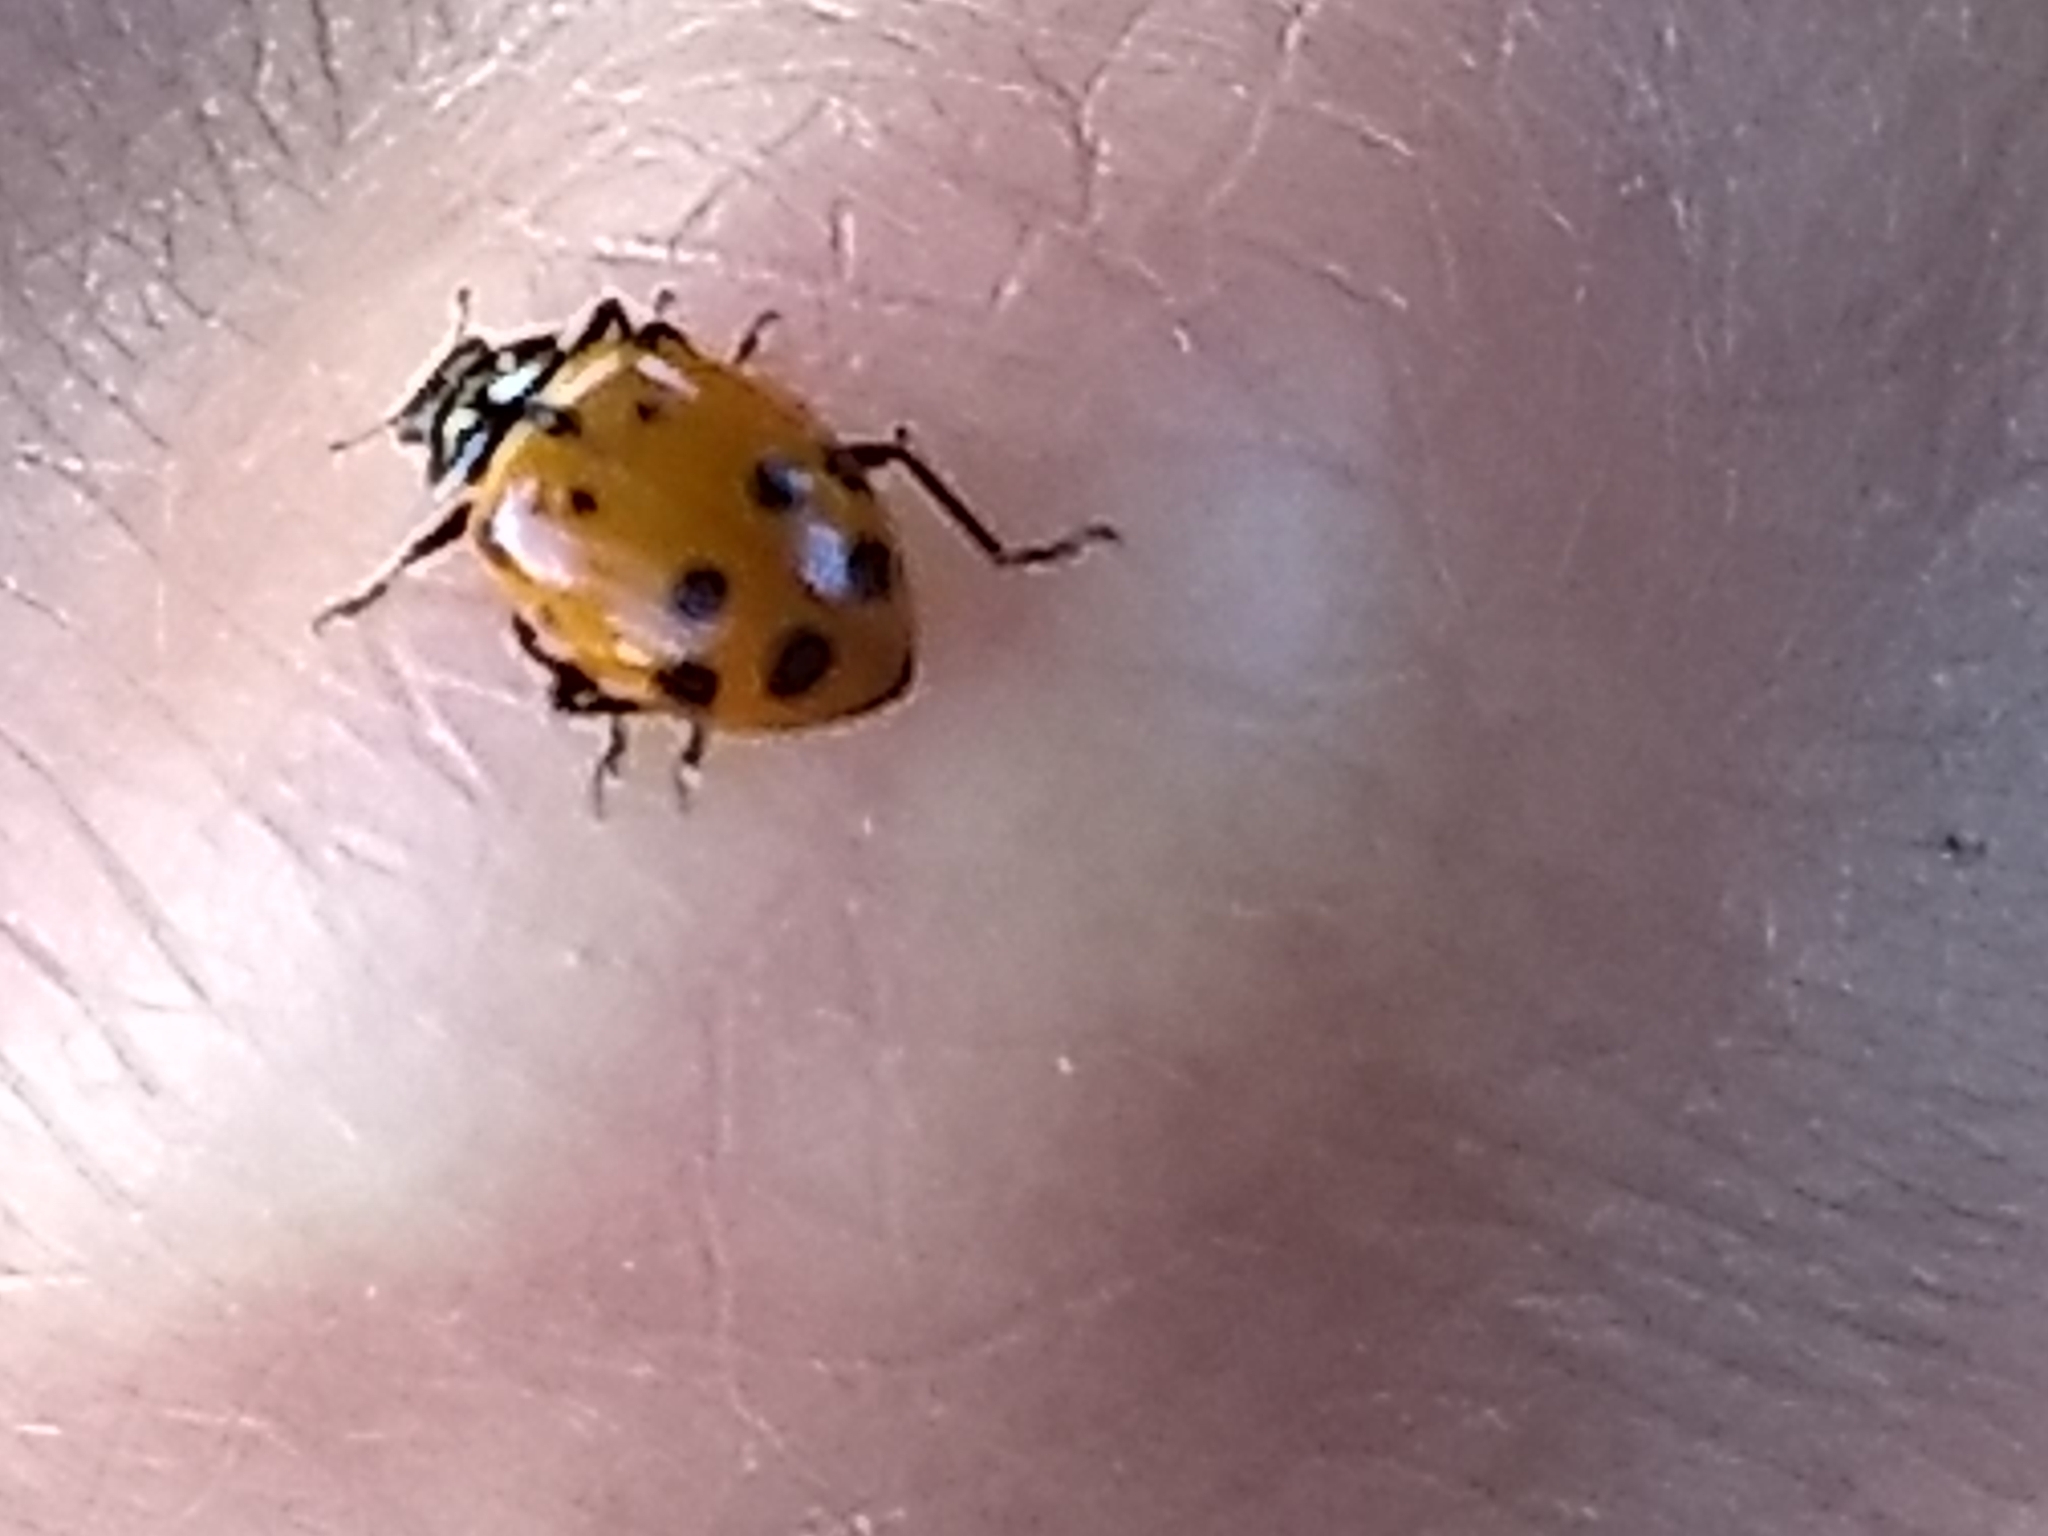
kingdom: Animalia
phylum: Arthropoda
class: Insecta
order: Coleoptera
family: Coccinellidae
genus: Hippodamia
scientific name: Hippodamia convergens
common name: Convergent lady beetle
